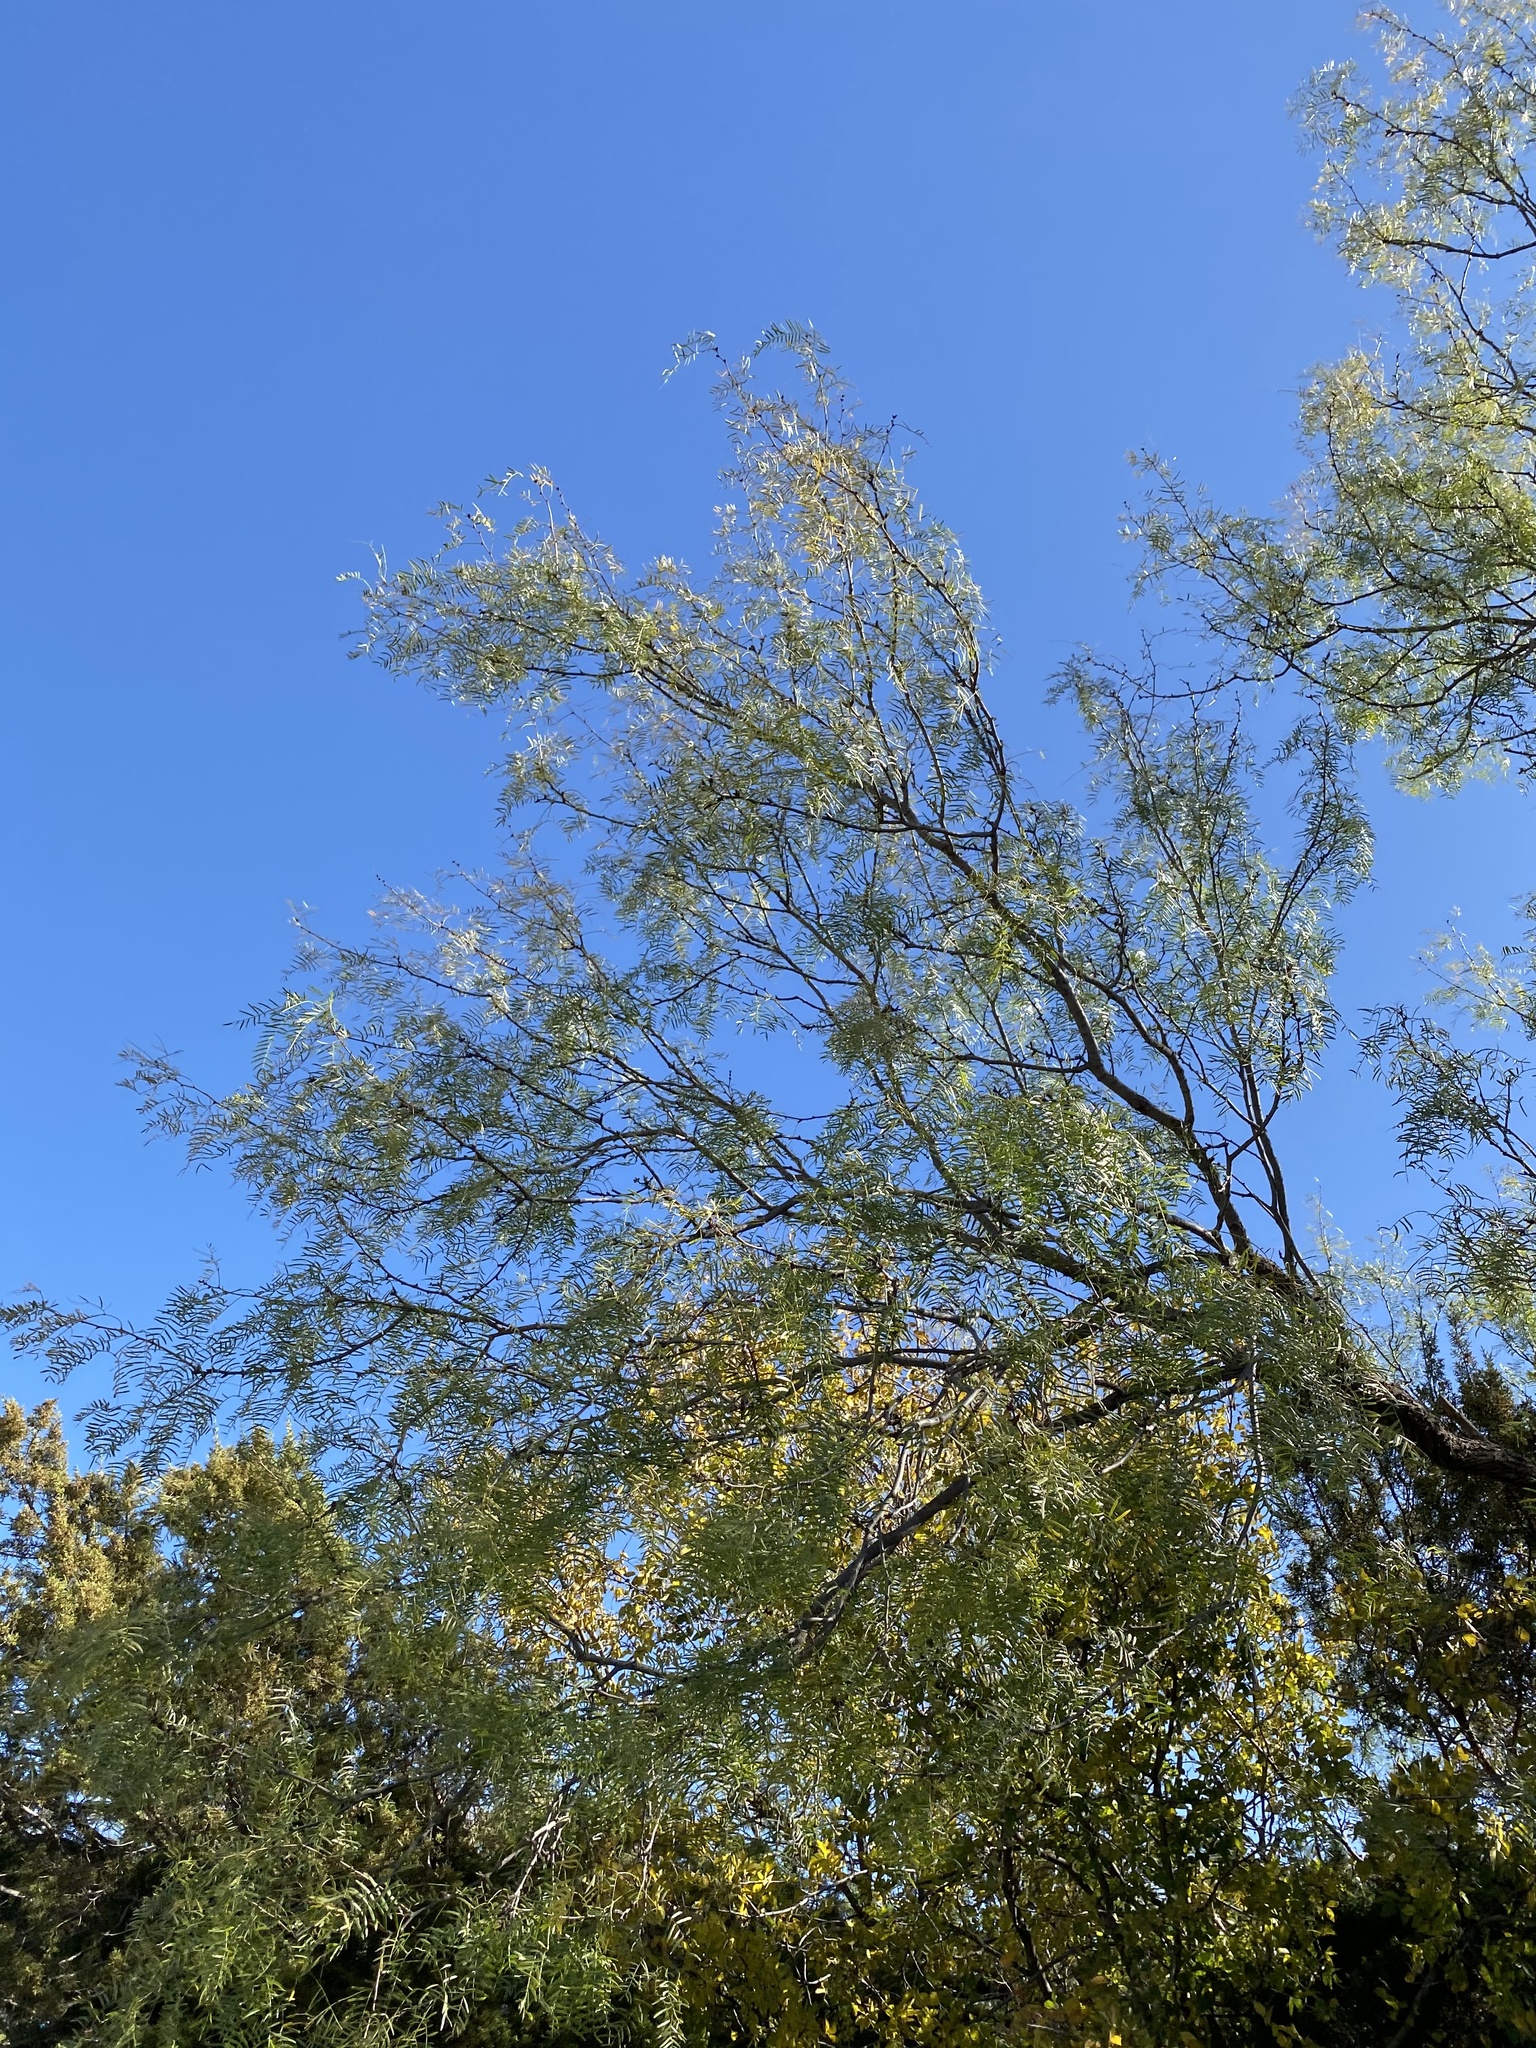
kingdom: Plantae
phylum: Tracheophyta
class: Magnoliopsida
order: Fabales
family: Fabaceae
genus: Prosopis
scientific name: Prosopis glandulosa
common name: Honey mesquite
